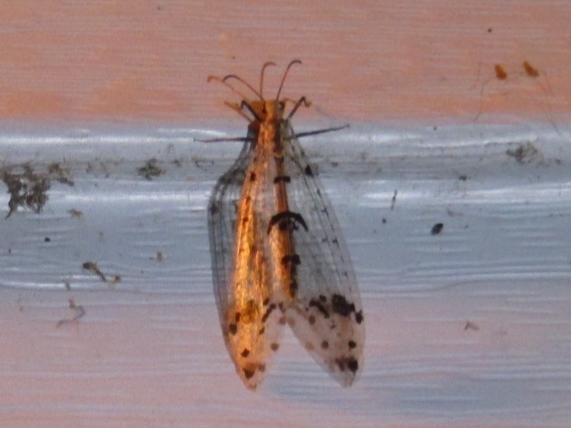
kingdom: Animalia
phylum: Arthropoda
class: Insecta
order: Neuroptera
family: Myrmeleontidae
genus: Dendroleon
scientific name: Dendroleon obsoletus
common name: Eastern spotted-winged antlion
